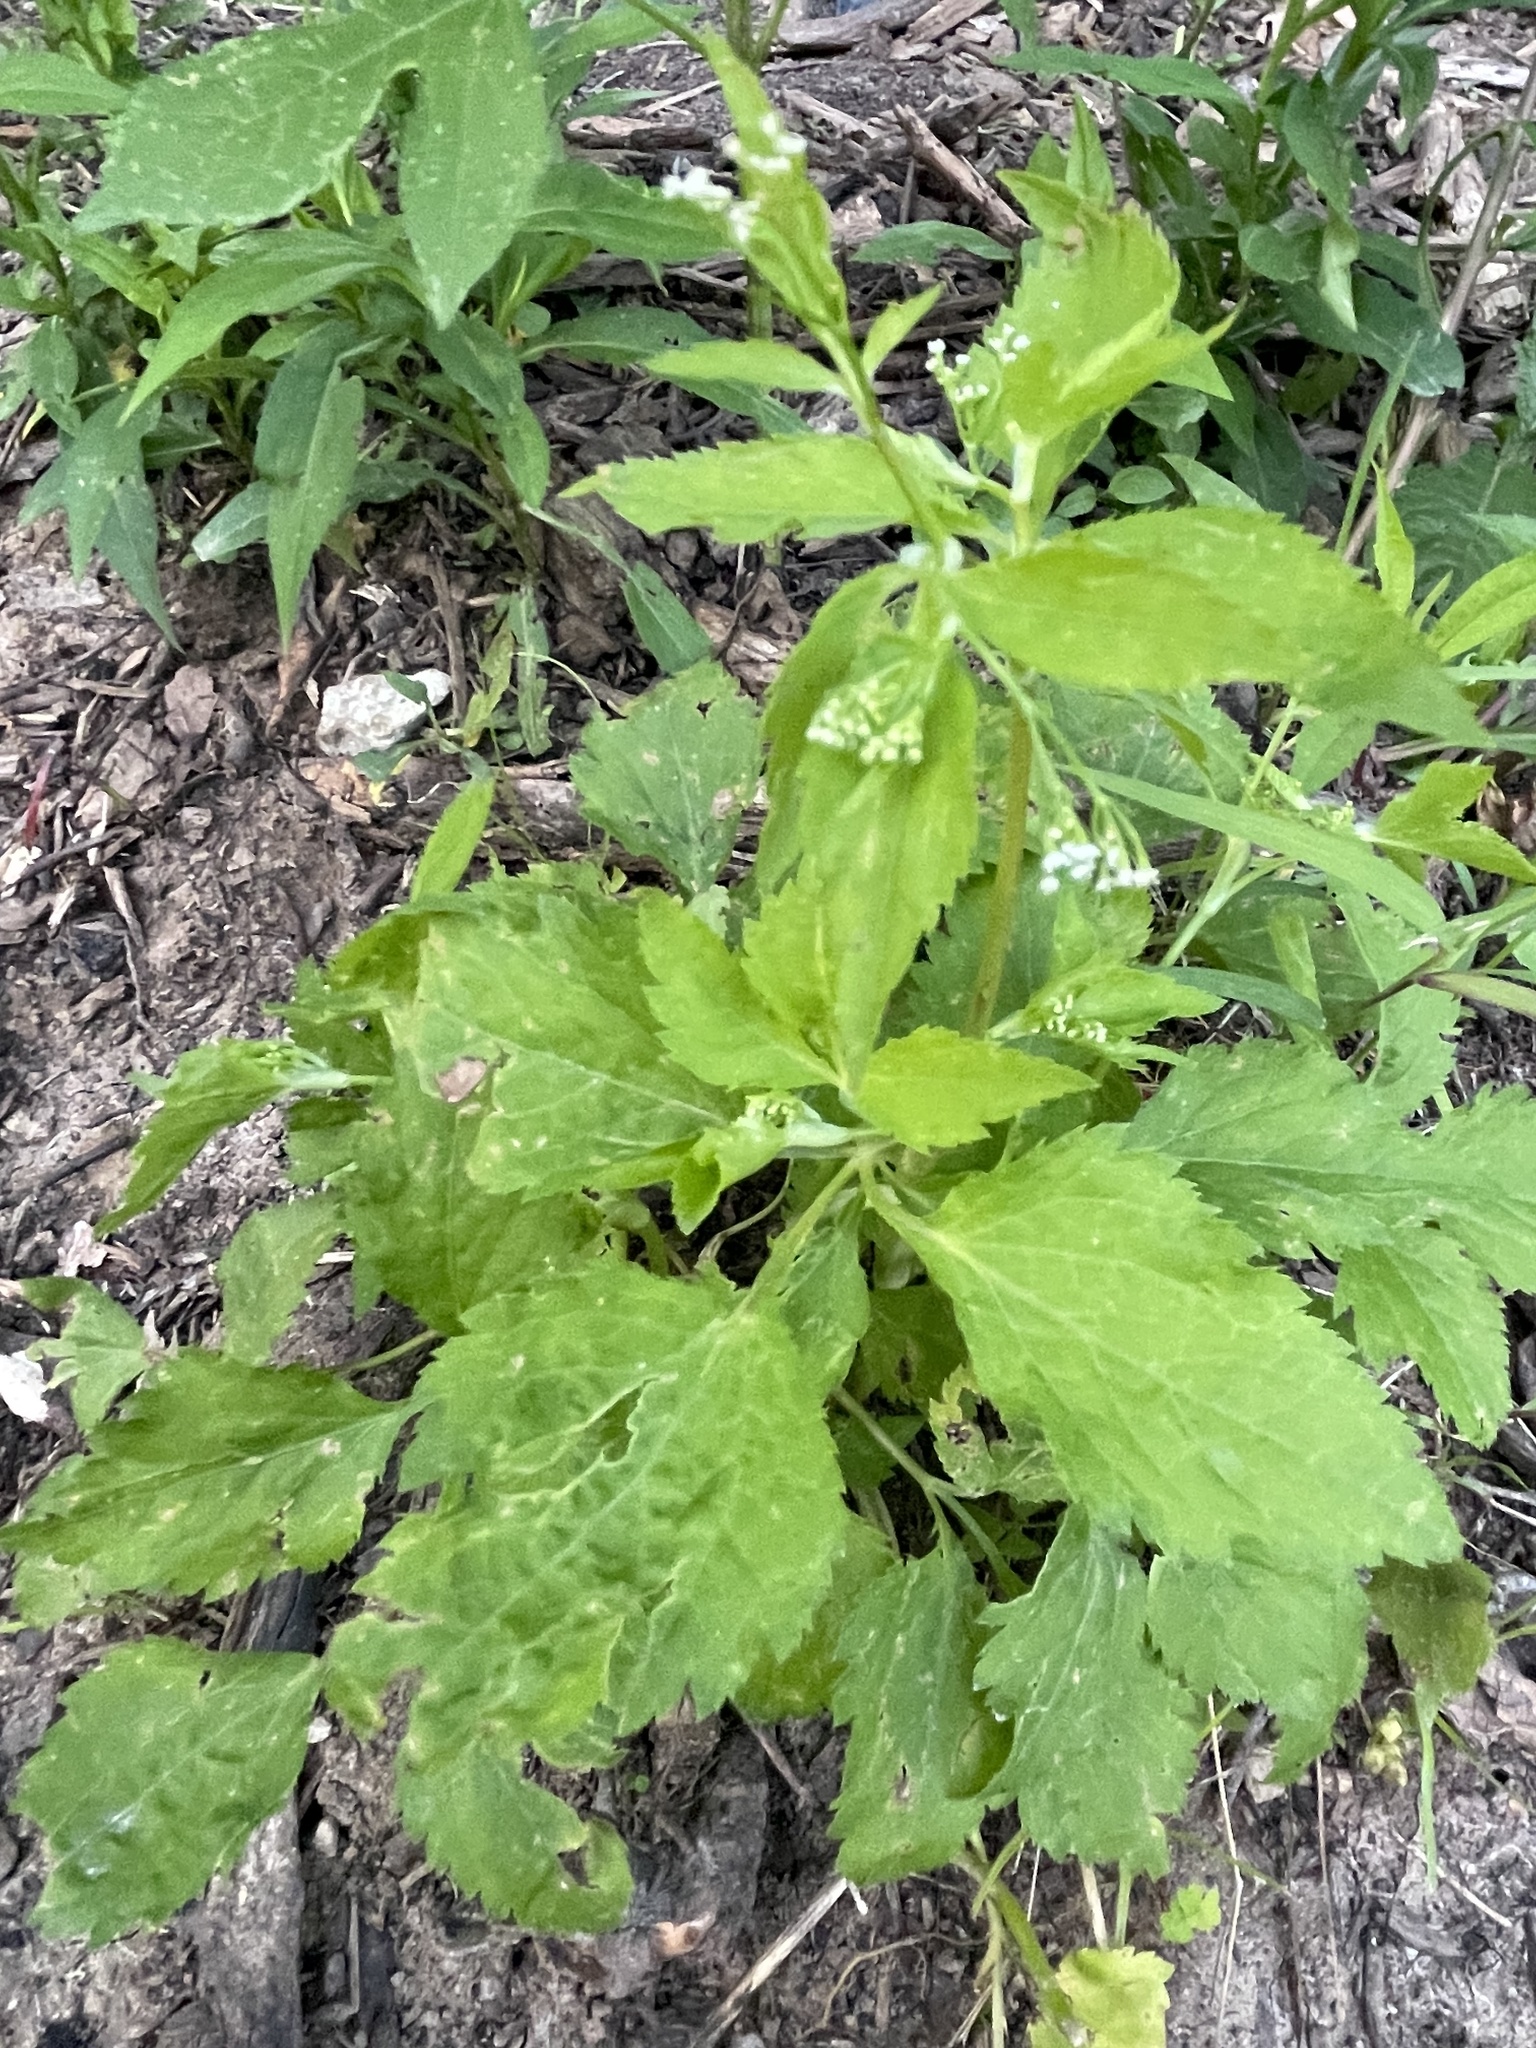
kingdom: Plantae
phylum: Tracheophyta
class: Magnoliopsida
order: Apiales
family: Apiaceae
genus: Cryptotaenia
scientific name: Cryptotaenia canadensis
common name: Honewort
